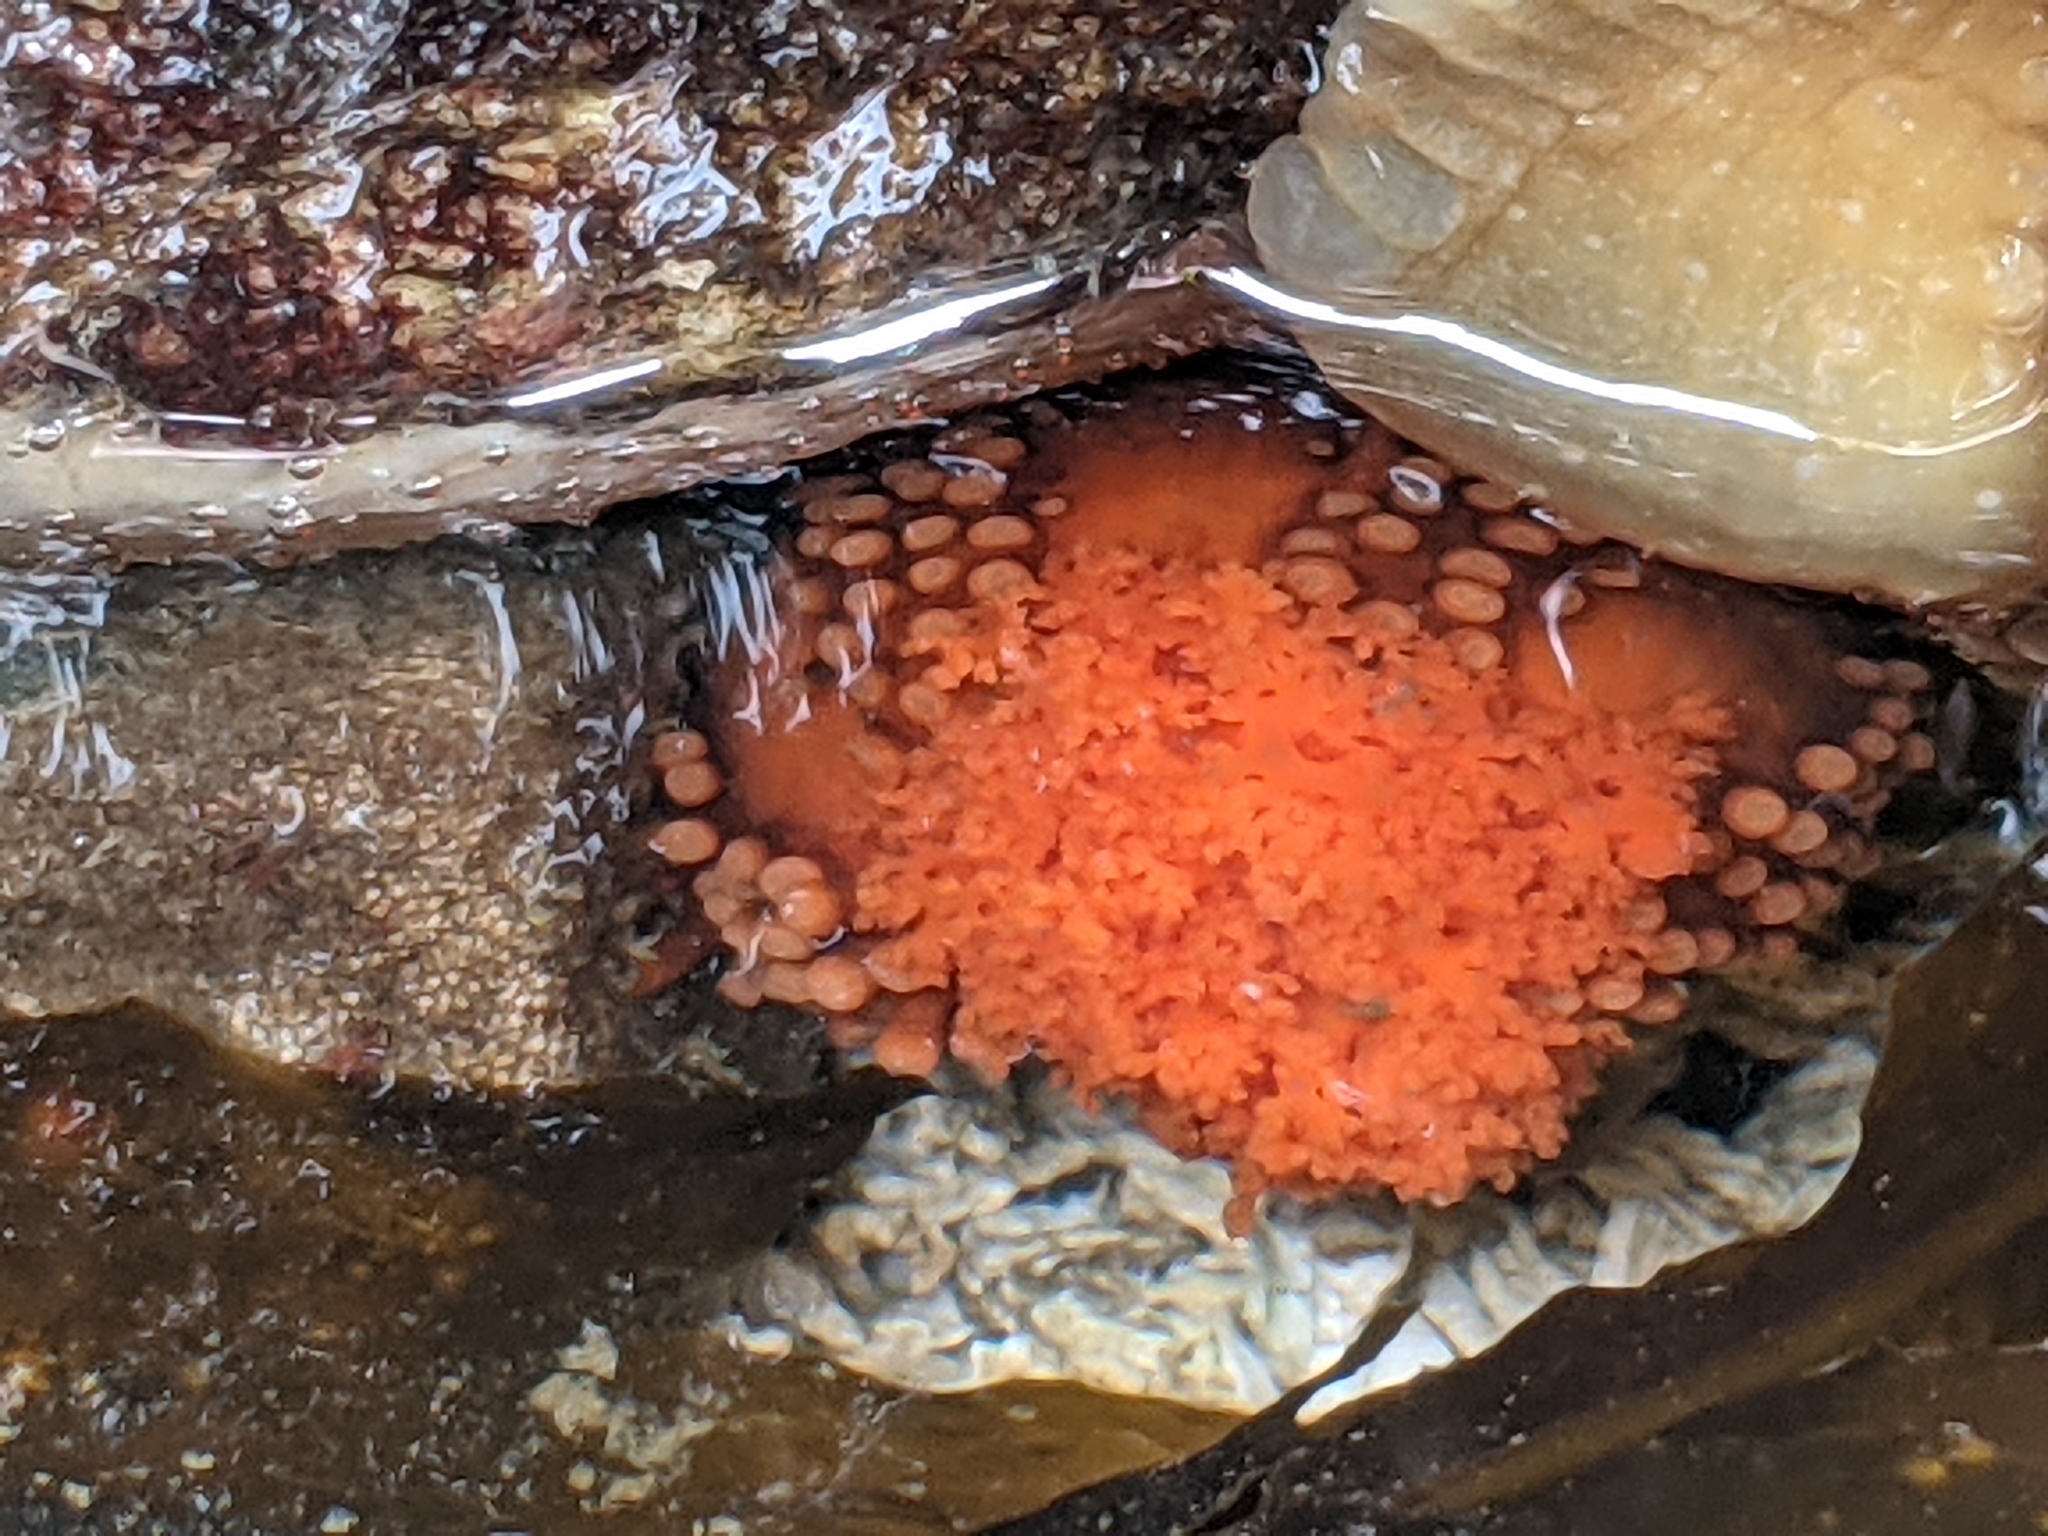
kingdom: Animalia
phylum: Echinodermata
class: Holothuroidea
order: Dendrochirotida
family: Cucumariidae
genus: Cucumaria
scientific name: Cucumaria miniata
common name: Orange sea cucumber
